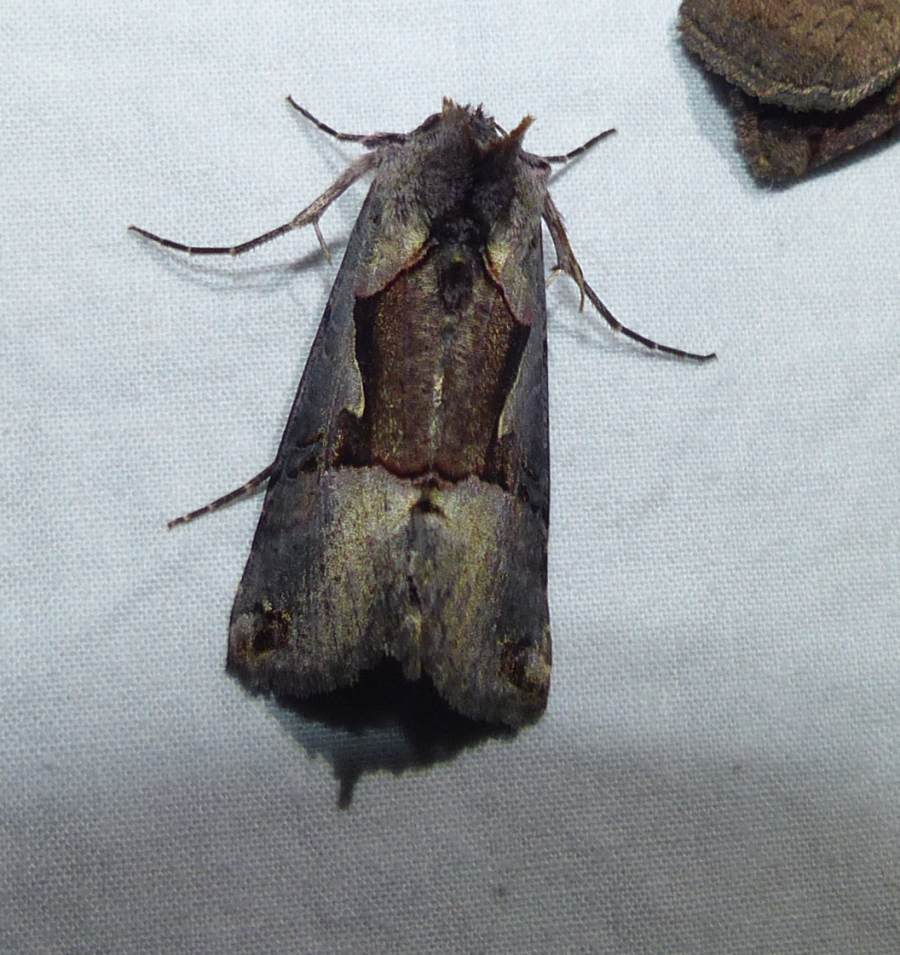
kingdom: Animalia
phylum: Arthropoda
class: Insecta
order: Lepidoptera
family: Noctuidae
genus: Autographa
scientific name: Autographa ampla
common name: Large looper moth
